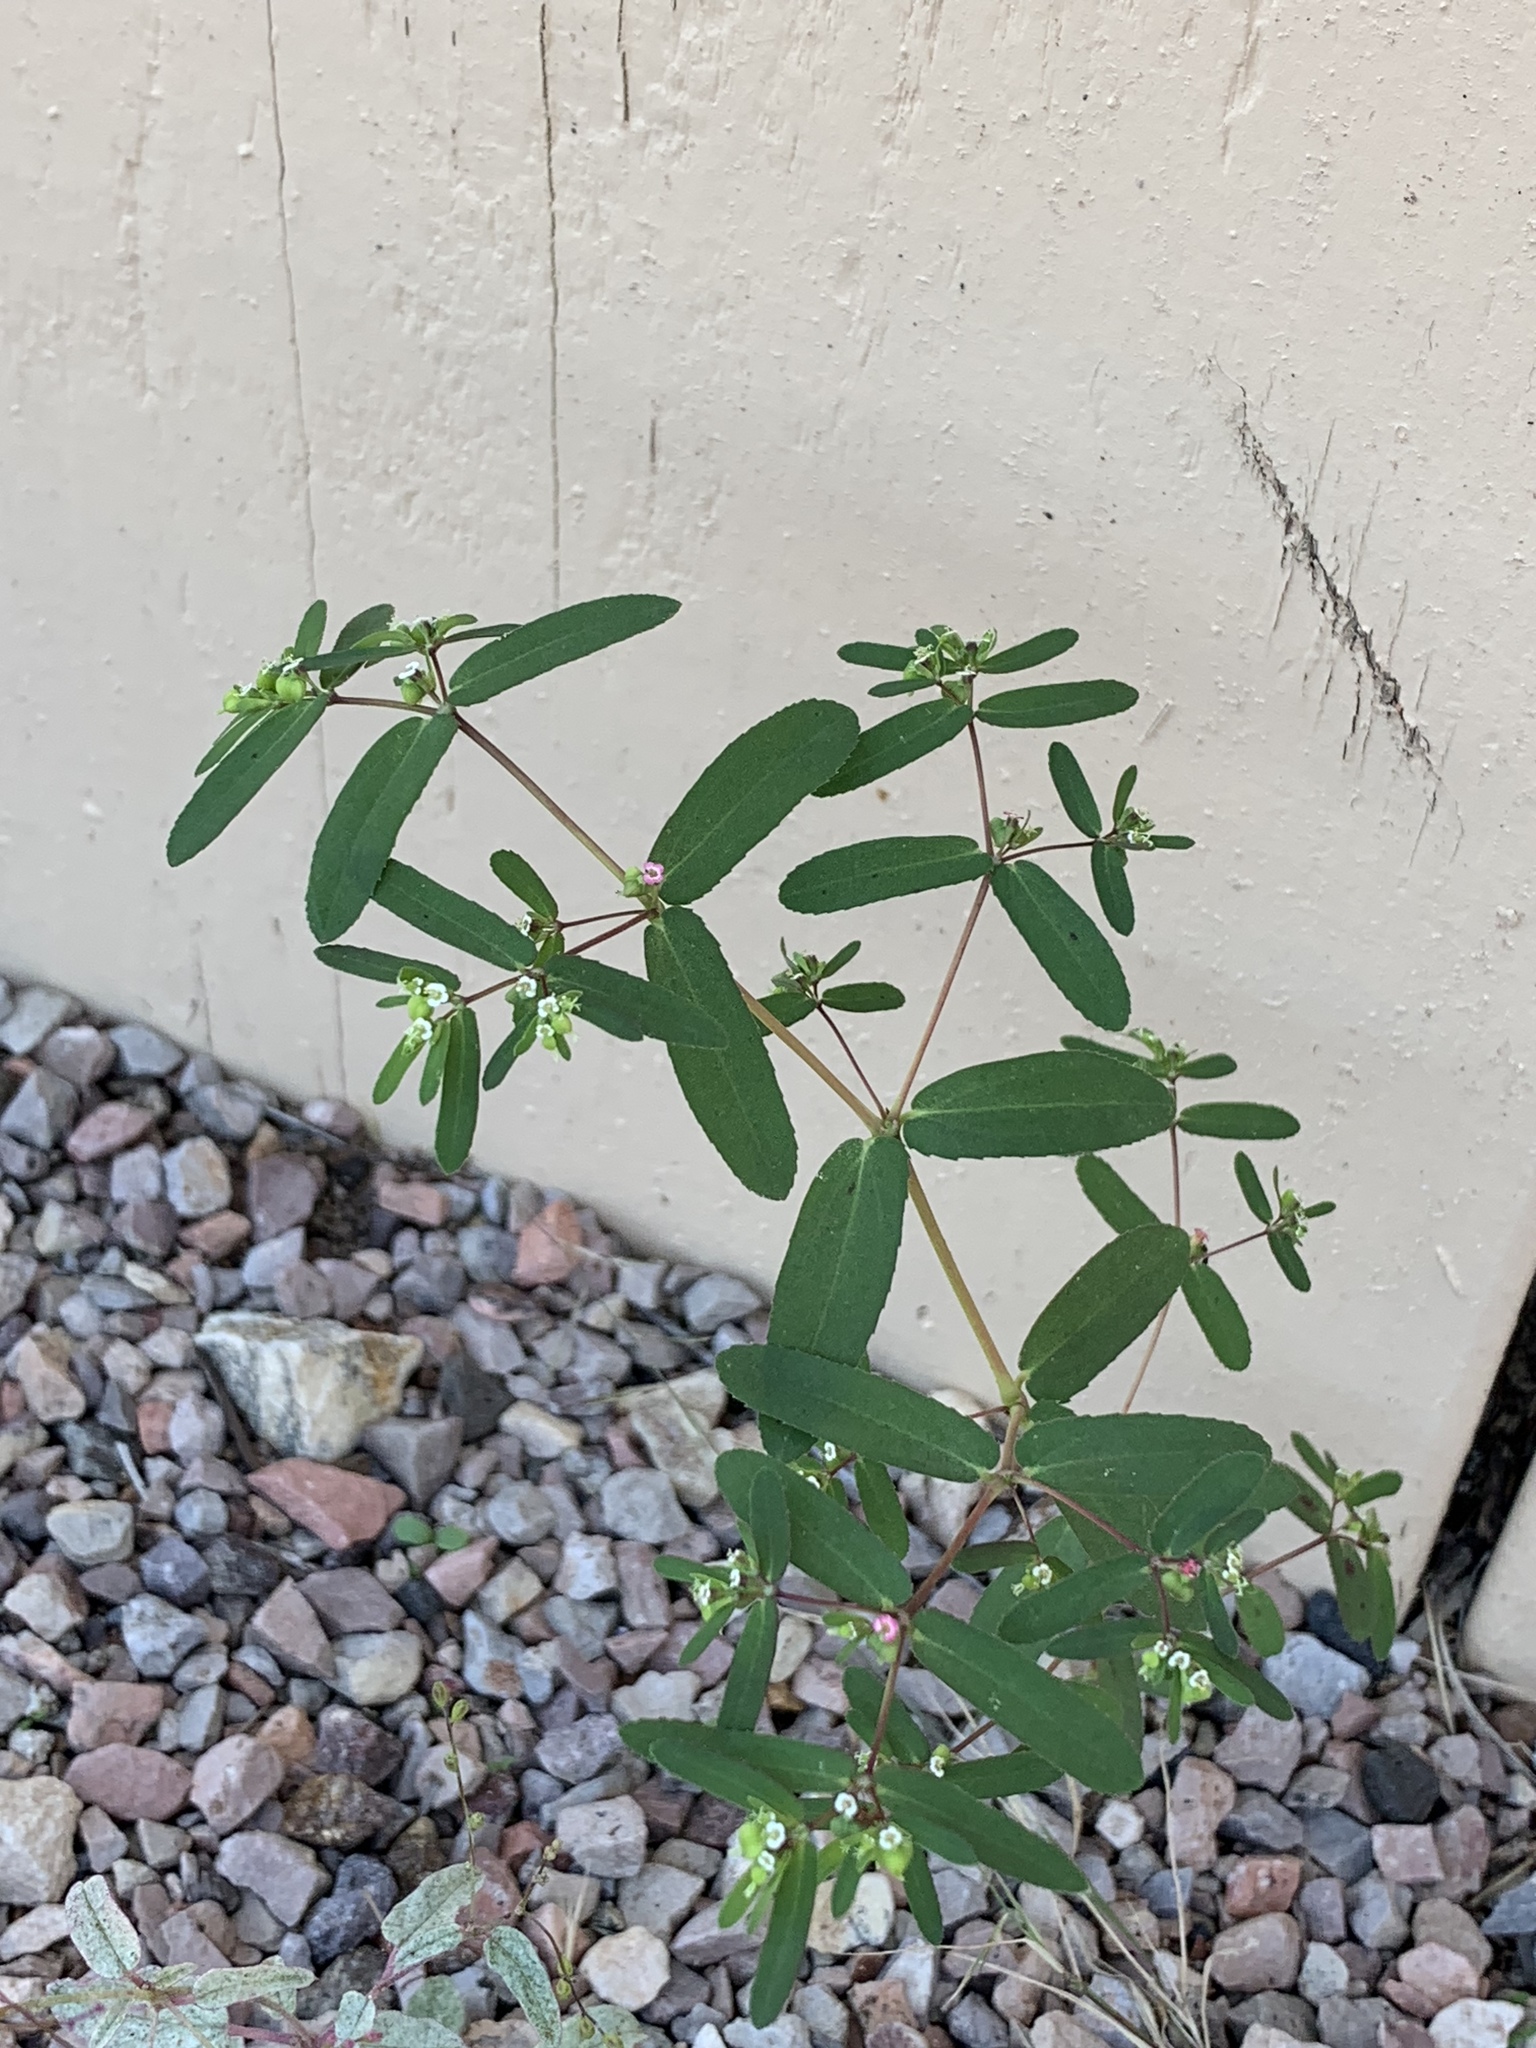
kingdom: Plantae
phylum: Tracheophyta
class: Magnoliopsida
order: Malpighiales
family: Euphorbiaceae
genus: Euphorbia
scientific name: Euphorbia hyssopifolia
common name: Hyssopleaf sandmat
